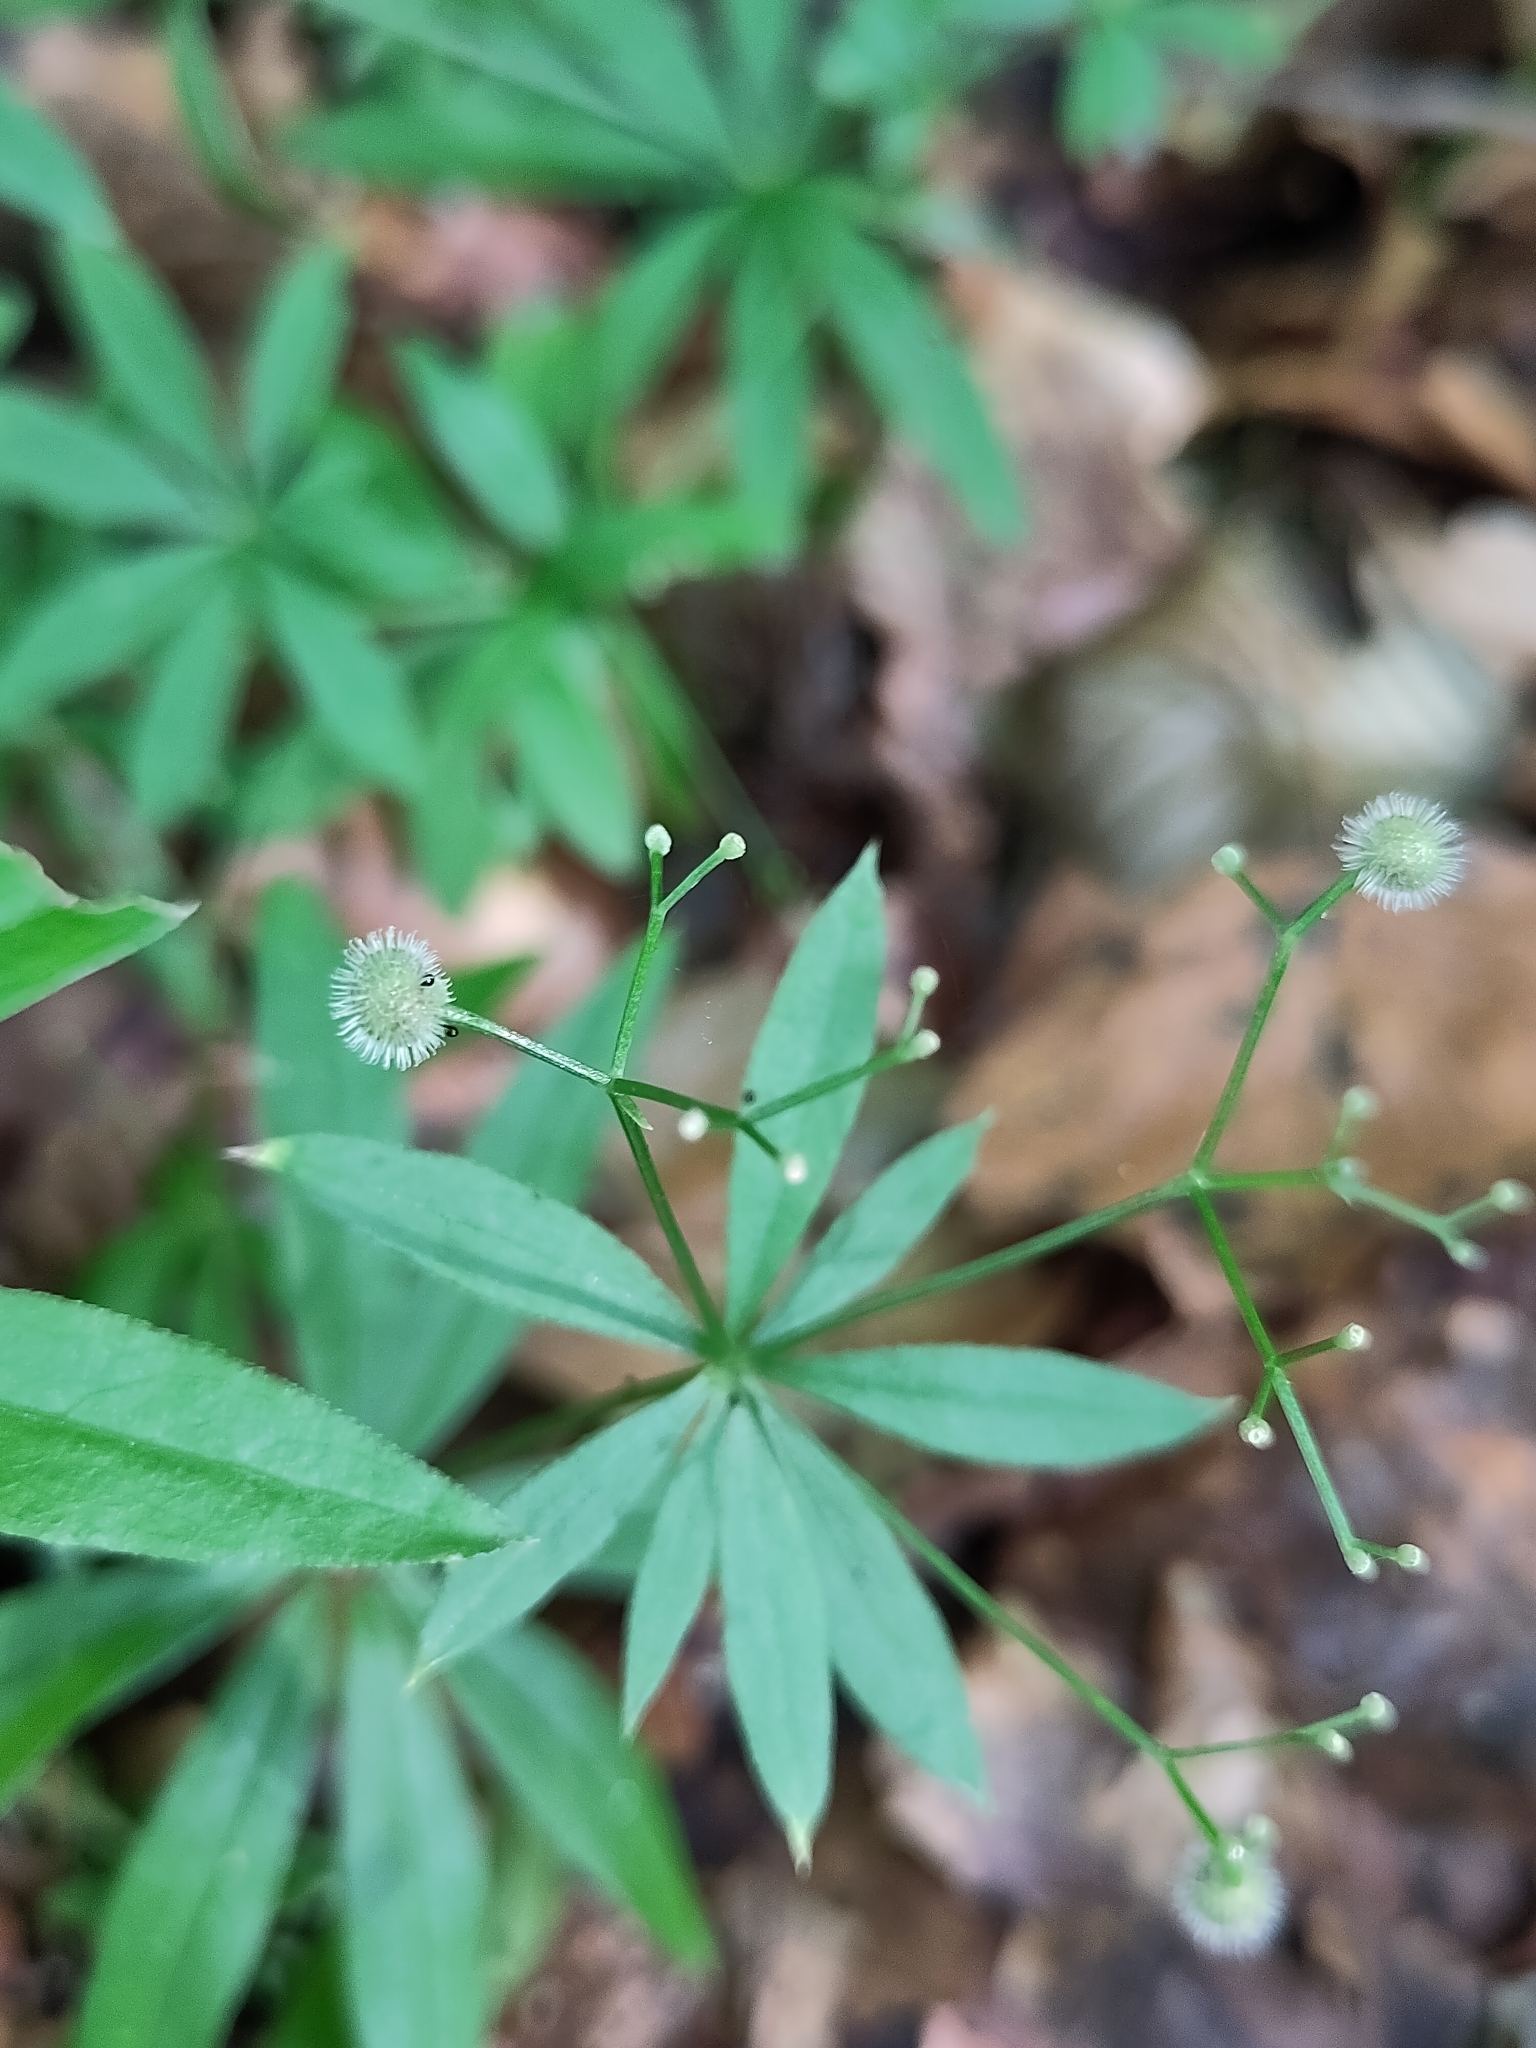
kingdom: Plantae
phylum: Tracheophyta
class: Magnoliopsida
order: Gentianales
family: Rubiaceae
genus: Galium
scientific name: Galium odoratum
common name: Sweet woodruff
